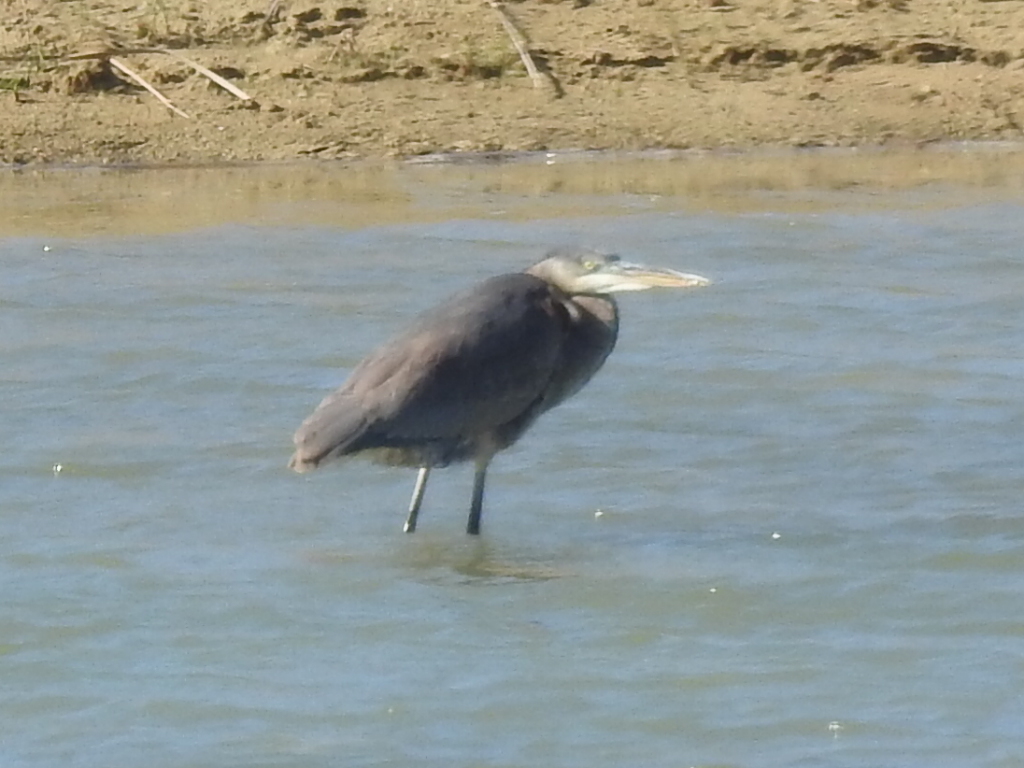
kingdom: Animalia
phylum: Chordata
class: Aves
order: Pelecaniformes
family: Ardeidae
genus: Ardea
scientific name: Ardea herodias
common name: Great blue heron
